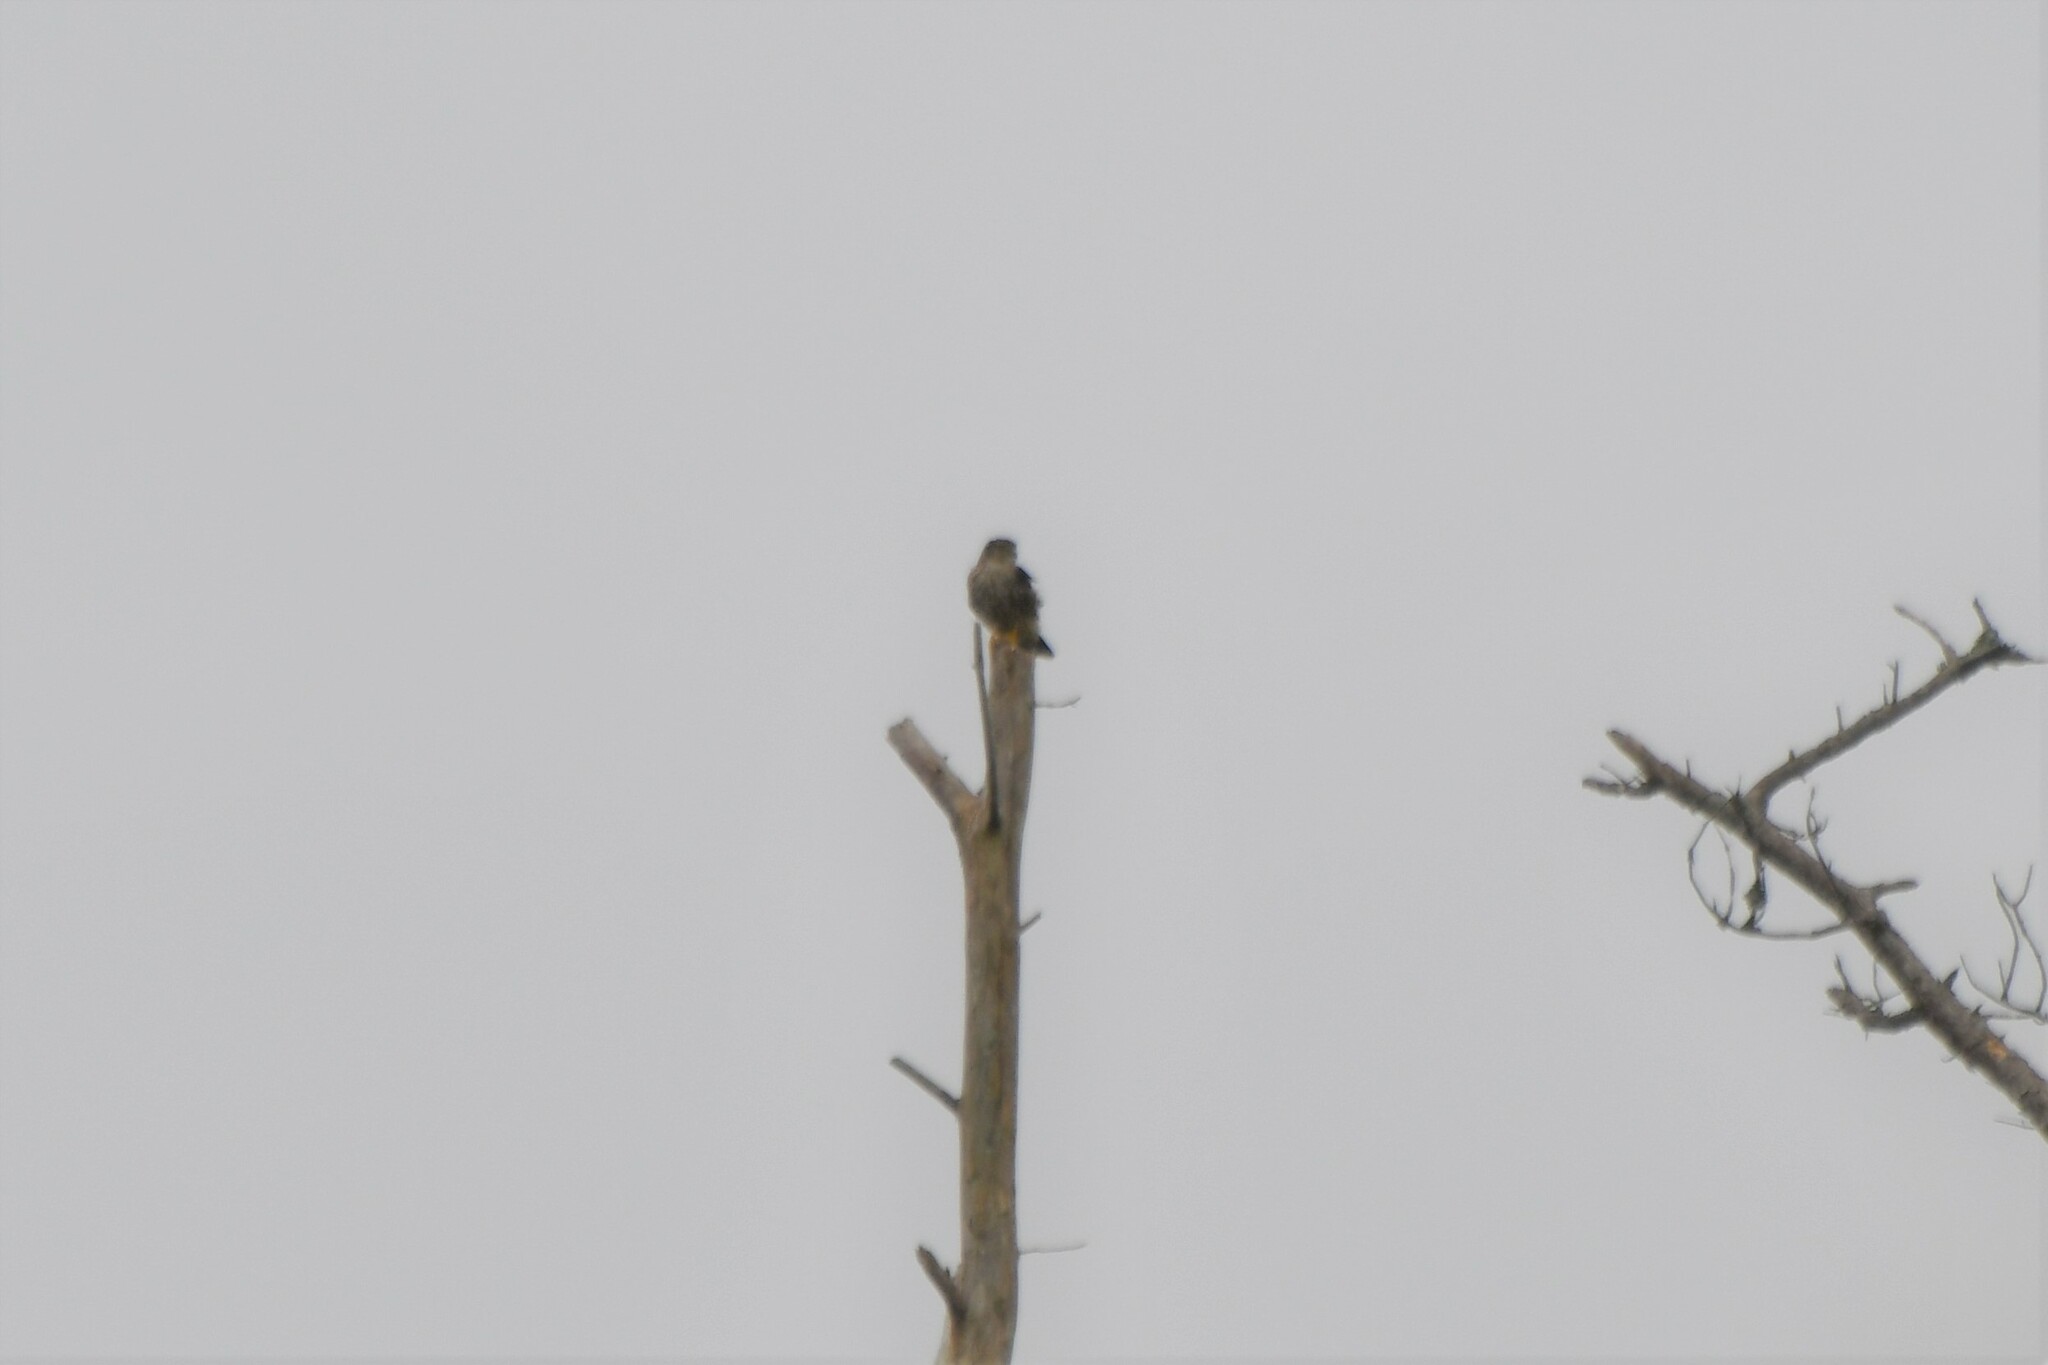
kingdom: Animalia
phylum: Chordata
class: Aves
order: Falconiformes
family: Falconidae
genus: Falco
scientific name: Falco columbarius
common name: Merlin
